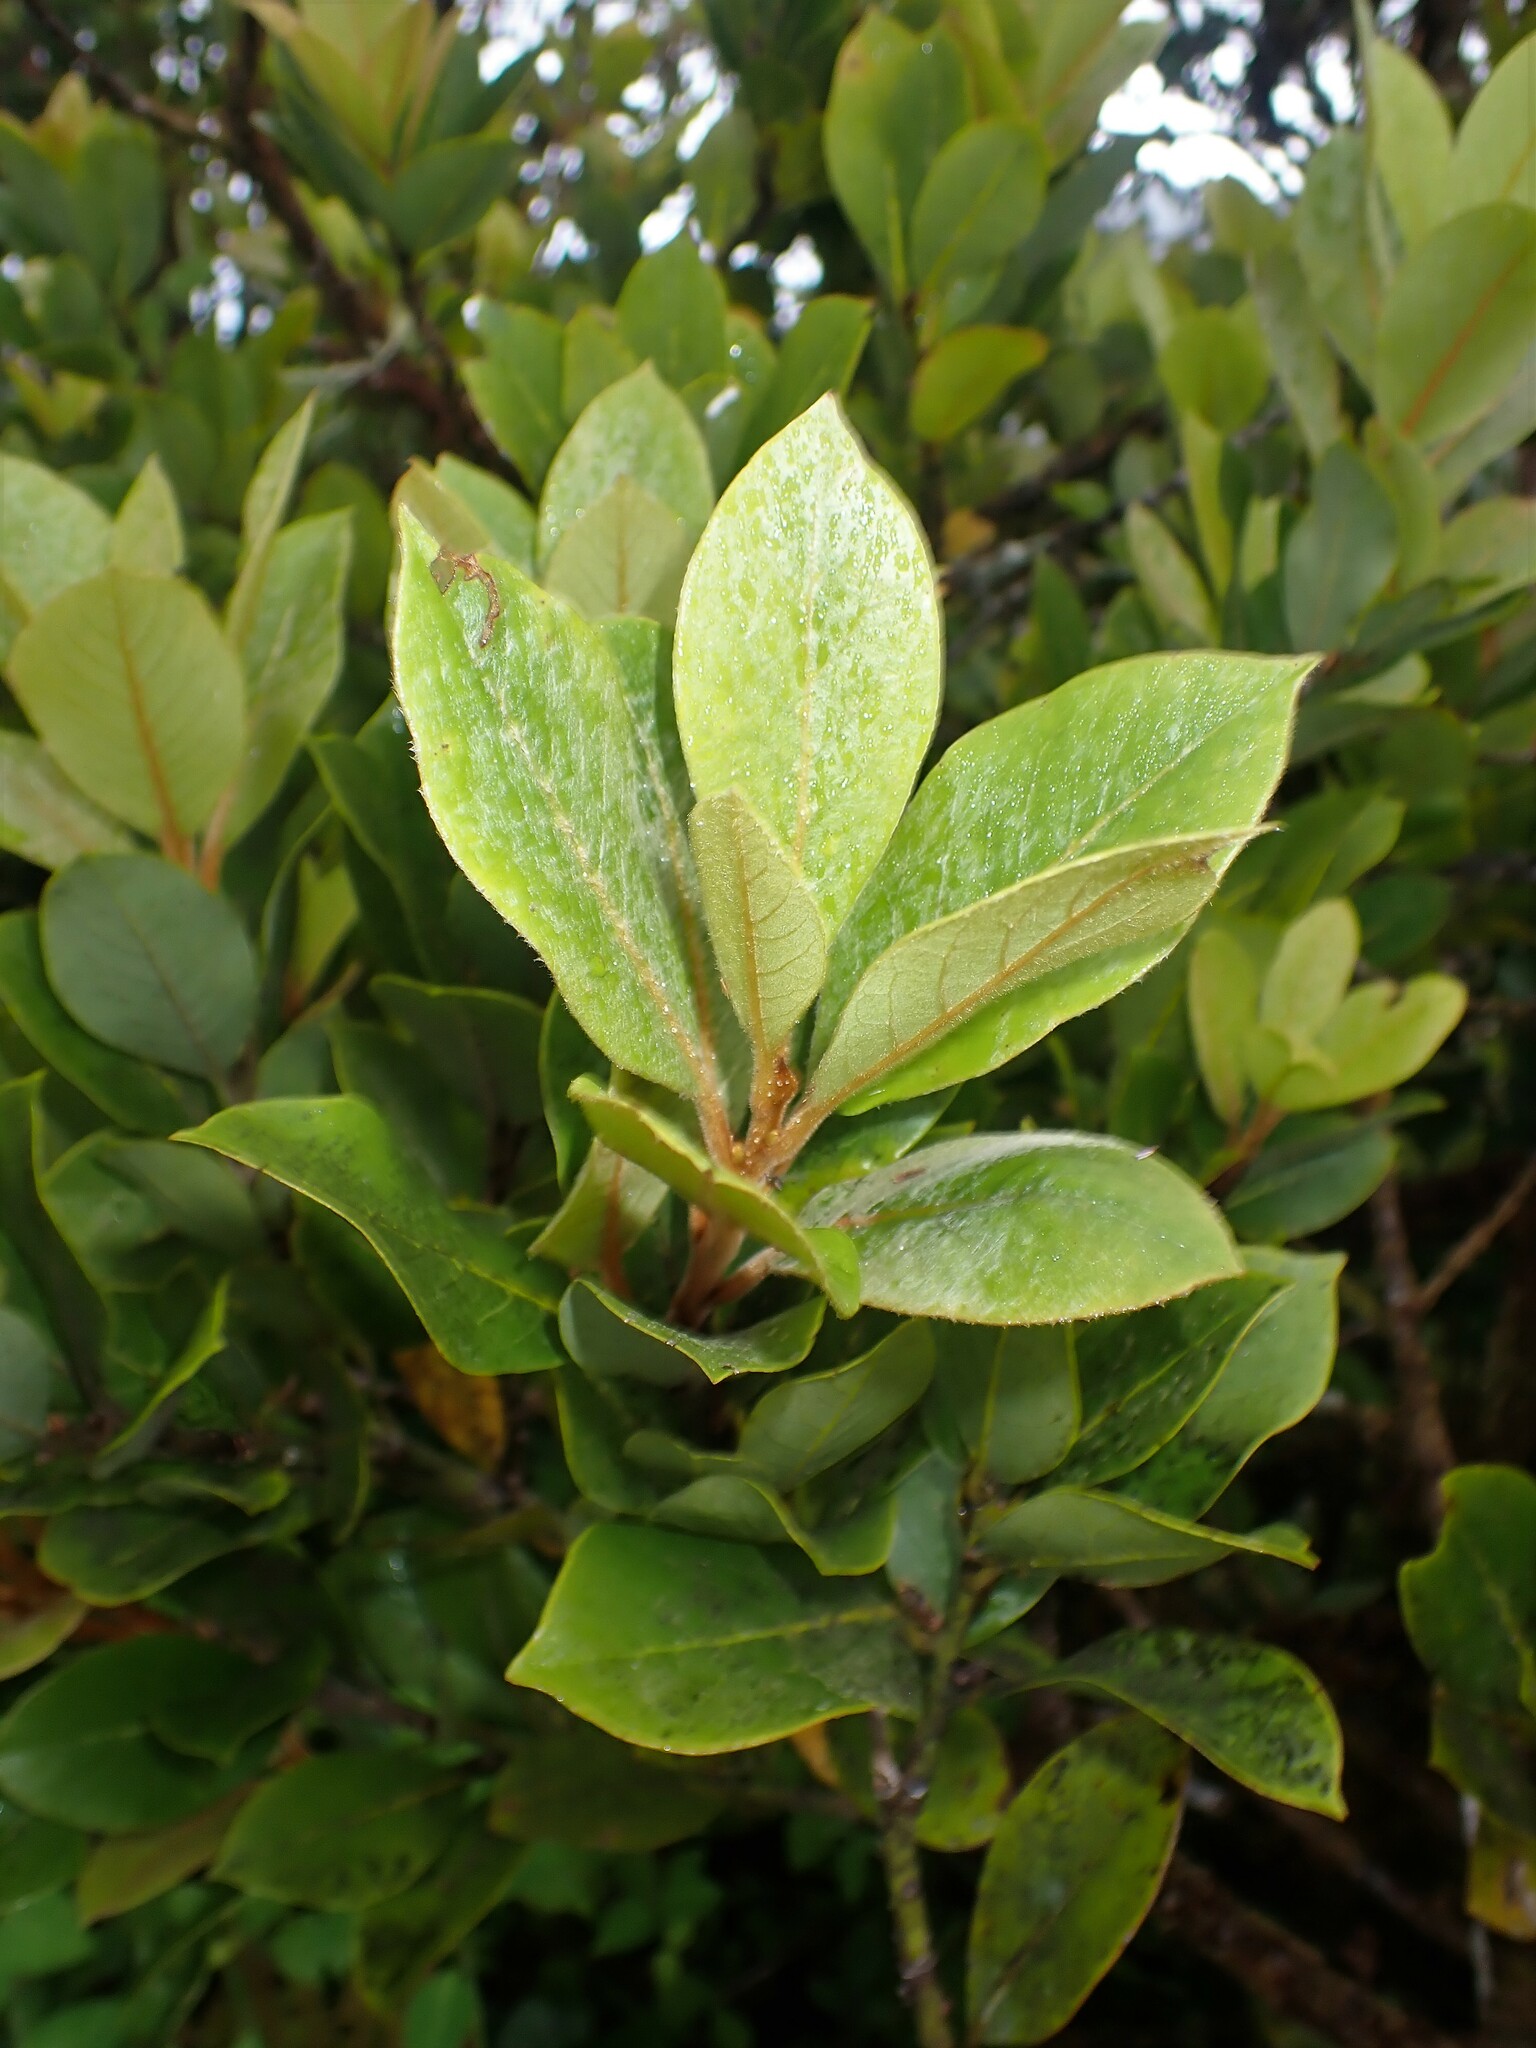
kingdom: Plantae
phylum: Tracheophyta
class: Magnoliopsida
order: Laurales
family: Lauraceae
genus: Laurus
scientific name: Laurus azorica
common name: Macaronesian laurel
